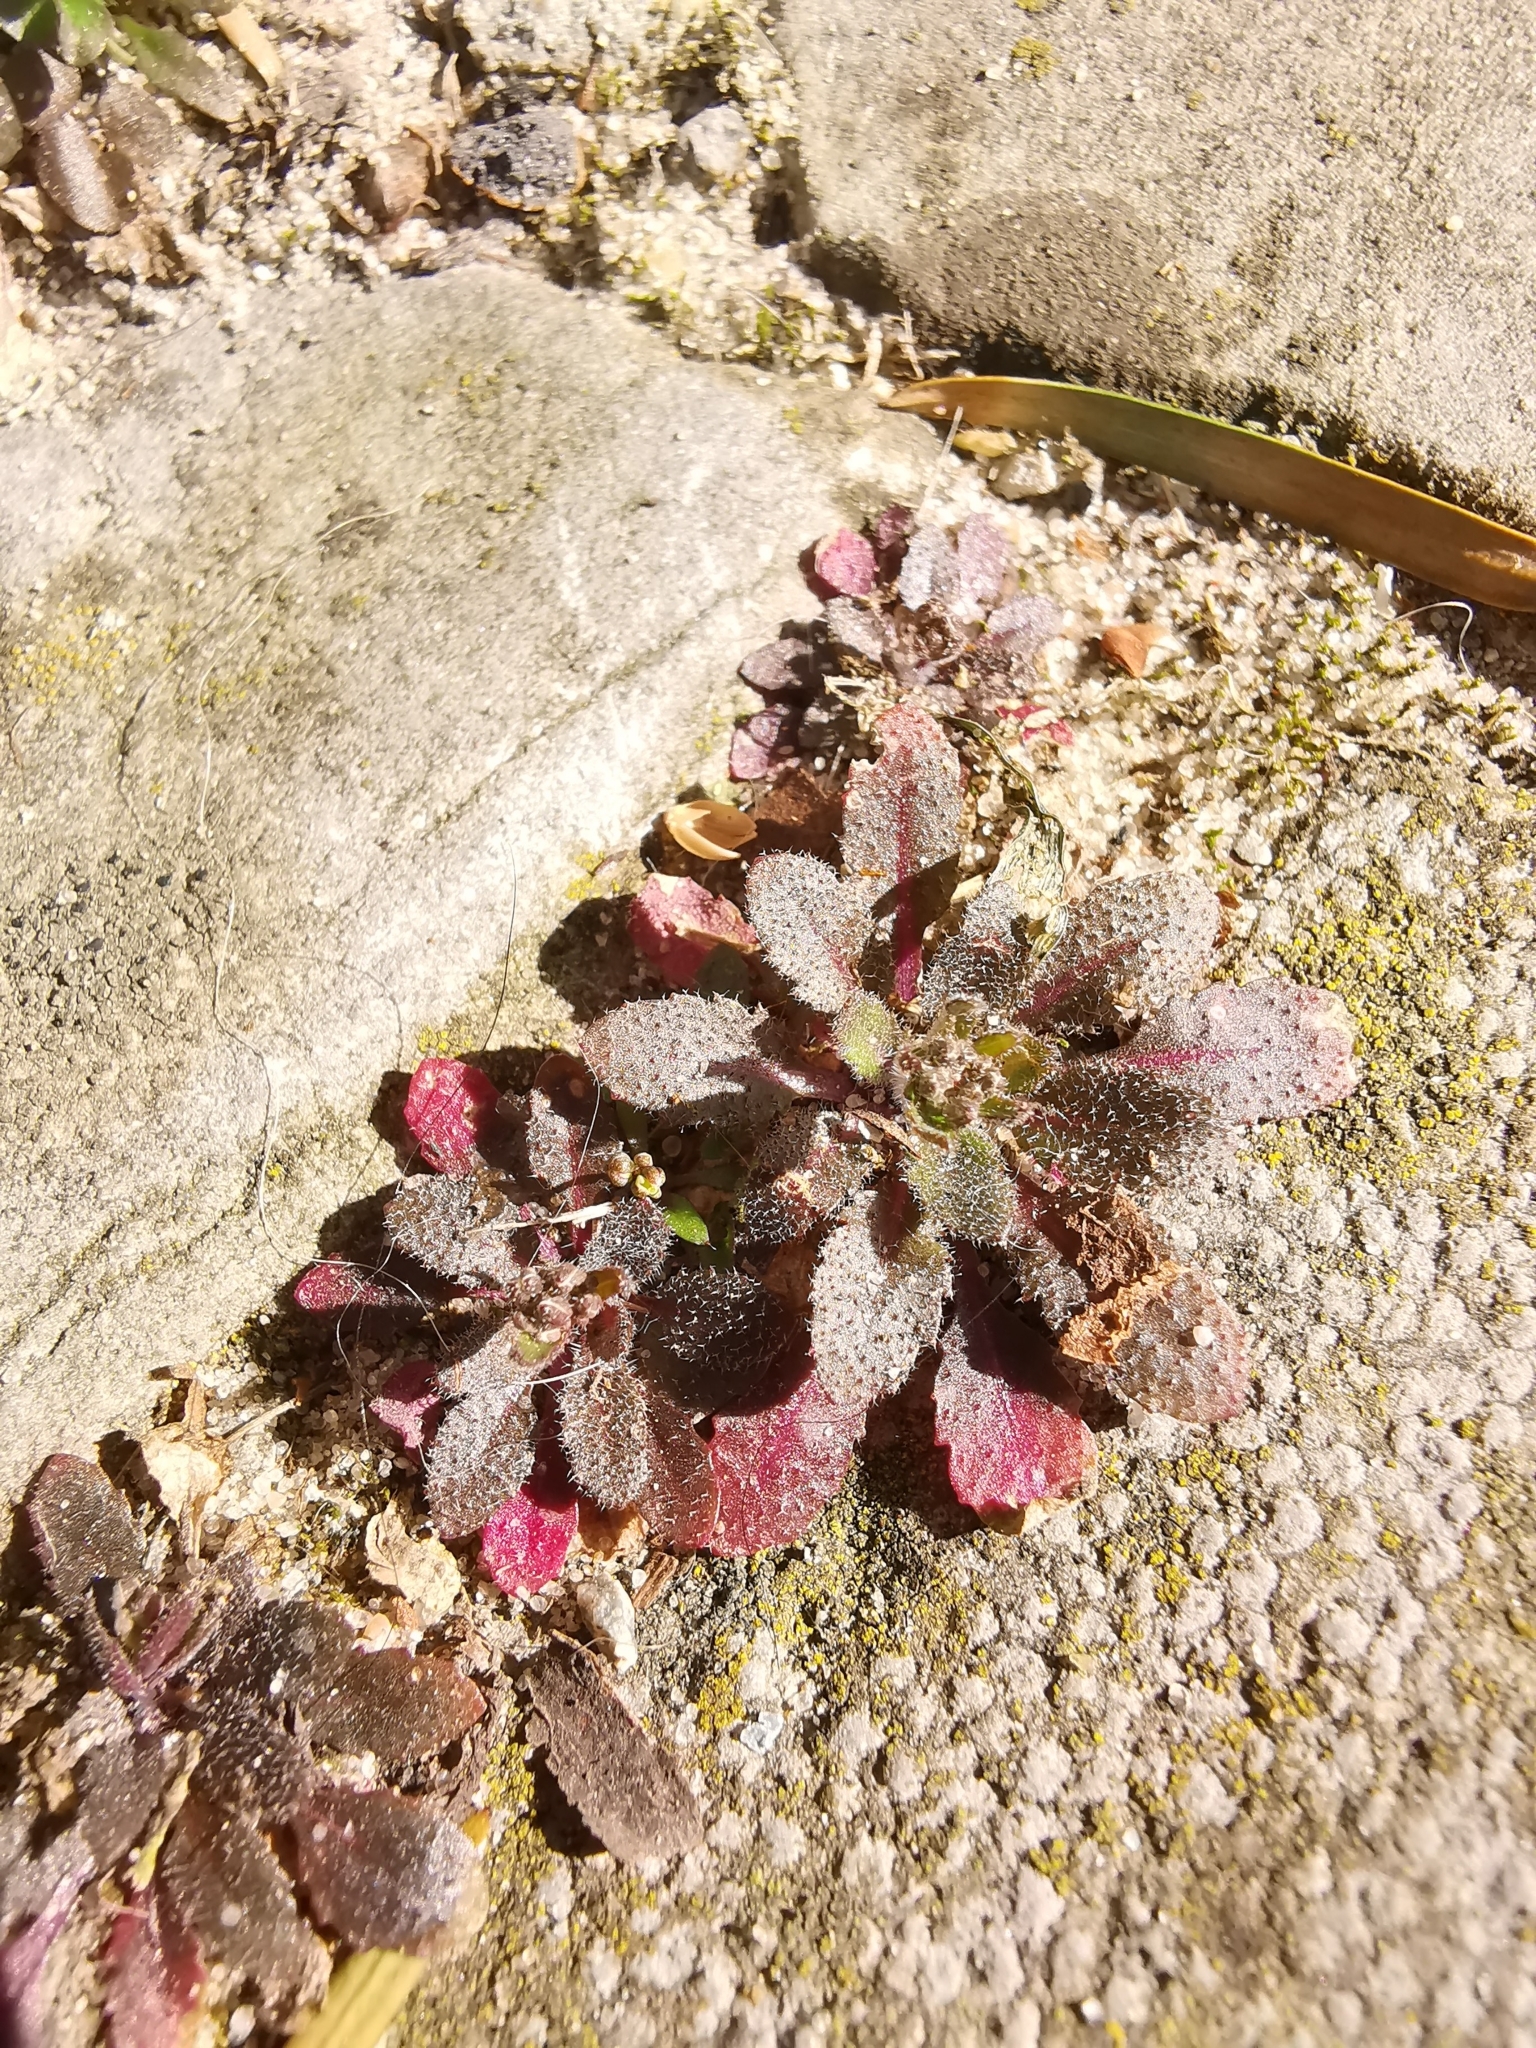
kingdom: Plantae
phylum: Tracheophyta
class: Magnoliopsida
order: Brassicales
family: Brassicaceae
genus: Draba
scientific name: Draba verna
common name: Spring draba
